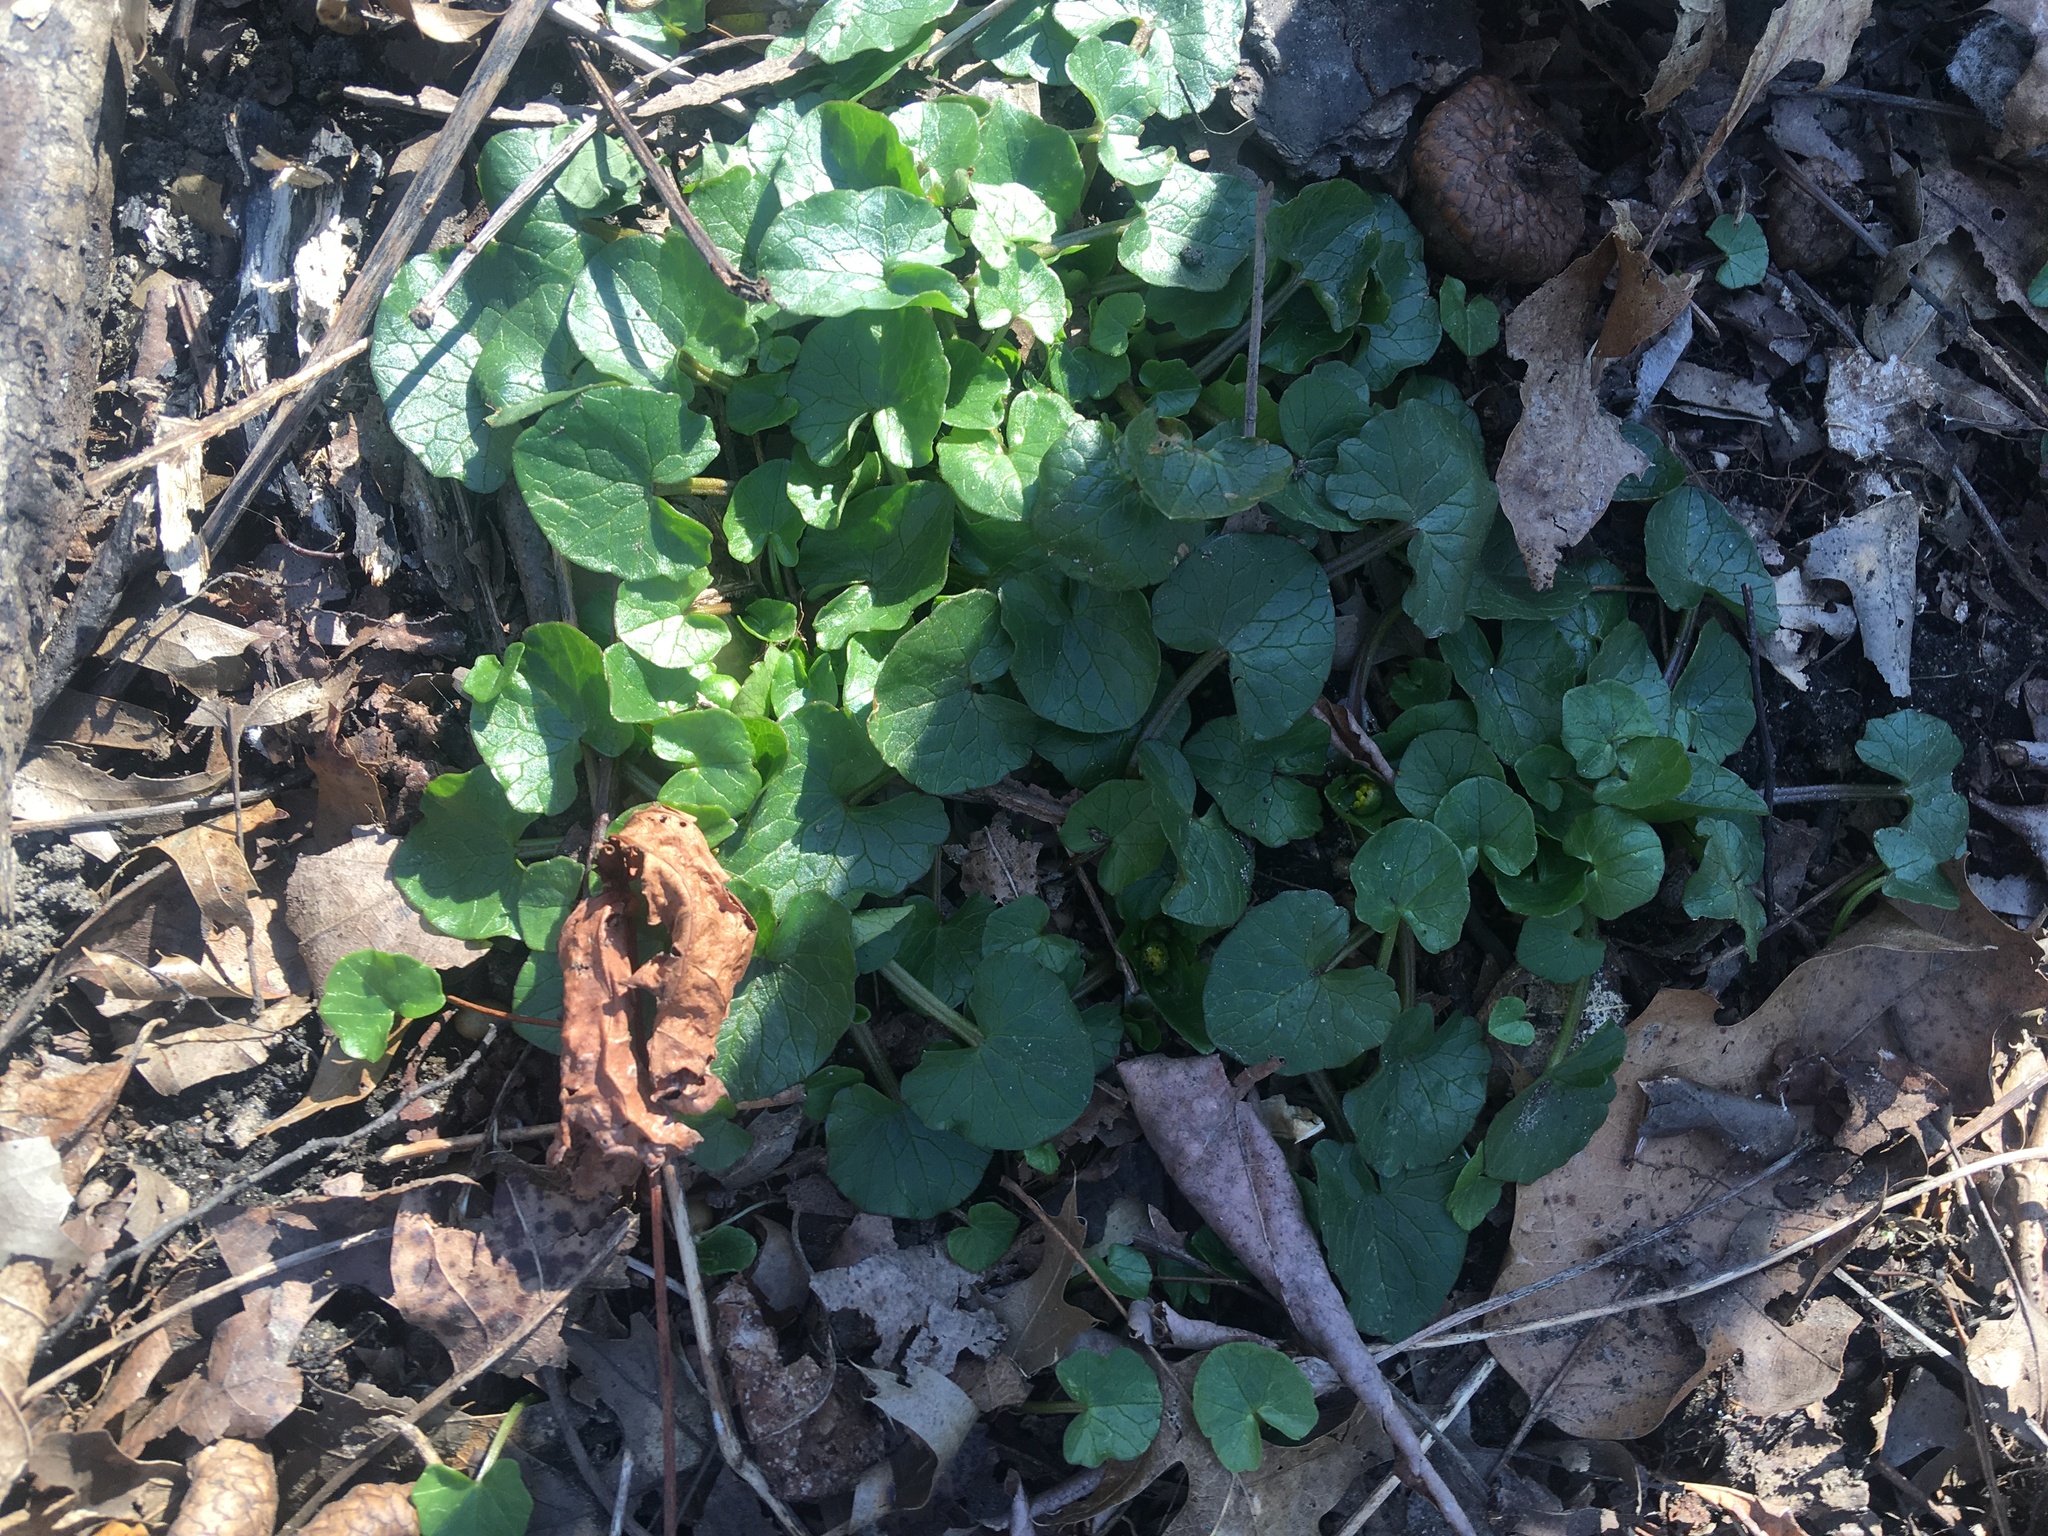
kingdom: Plantae
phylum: Tracheophyta
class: Magnoliopsida
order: Ranunculales
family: Ranunculaceae
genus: Ficaria
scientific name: Ficaria verna
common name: Lesser celandine
